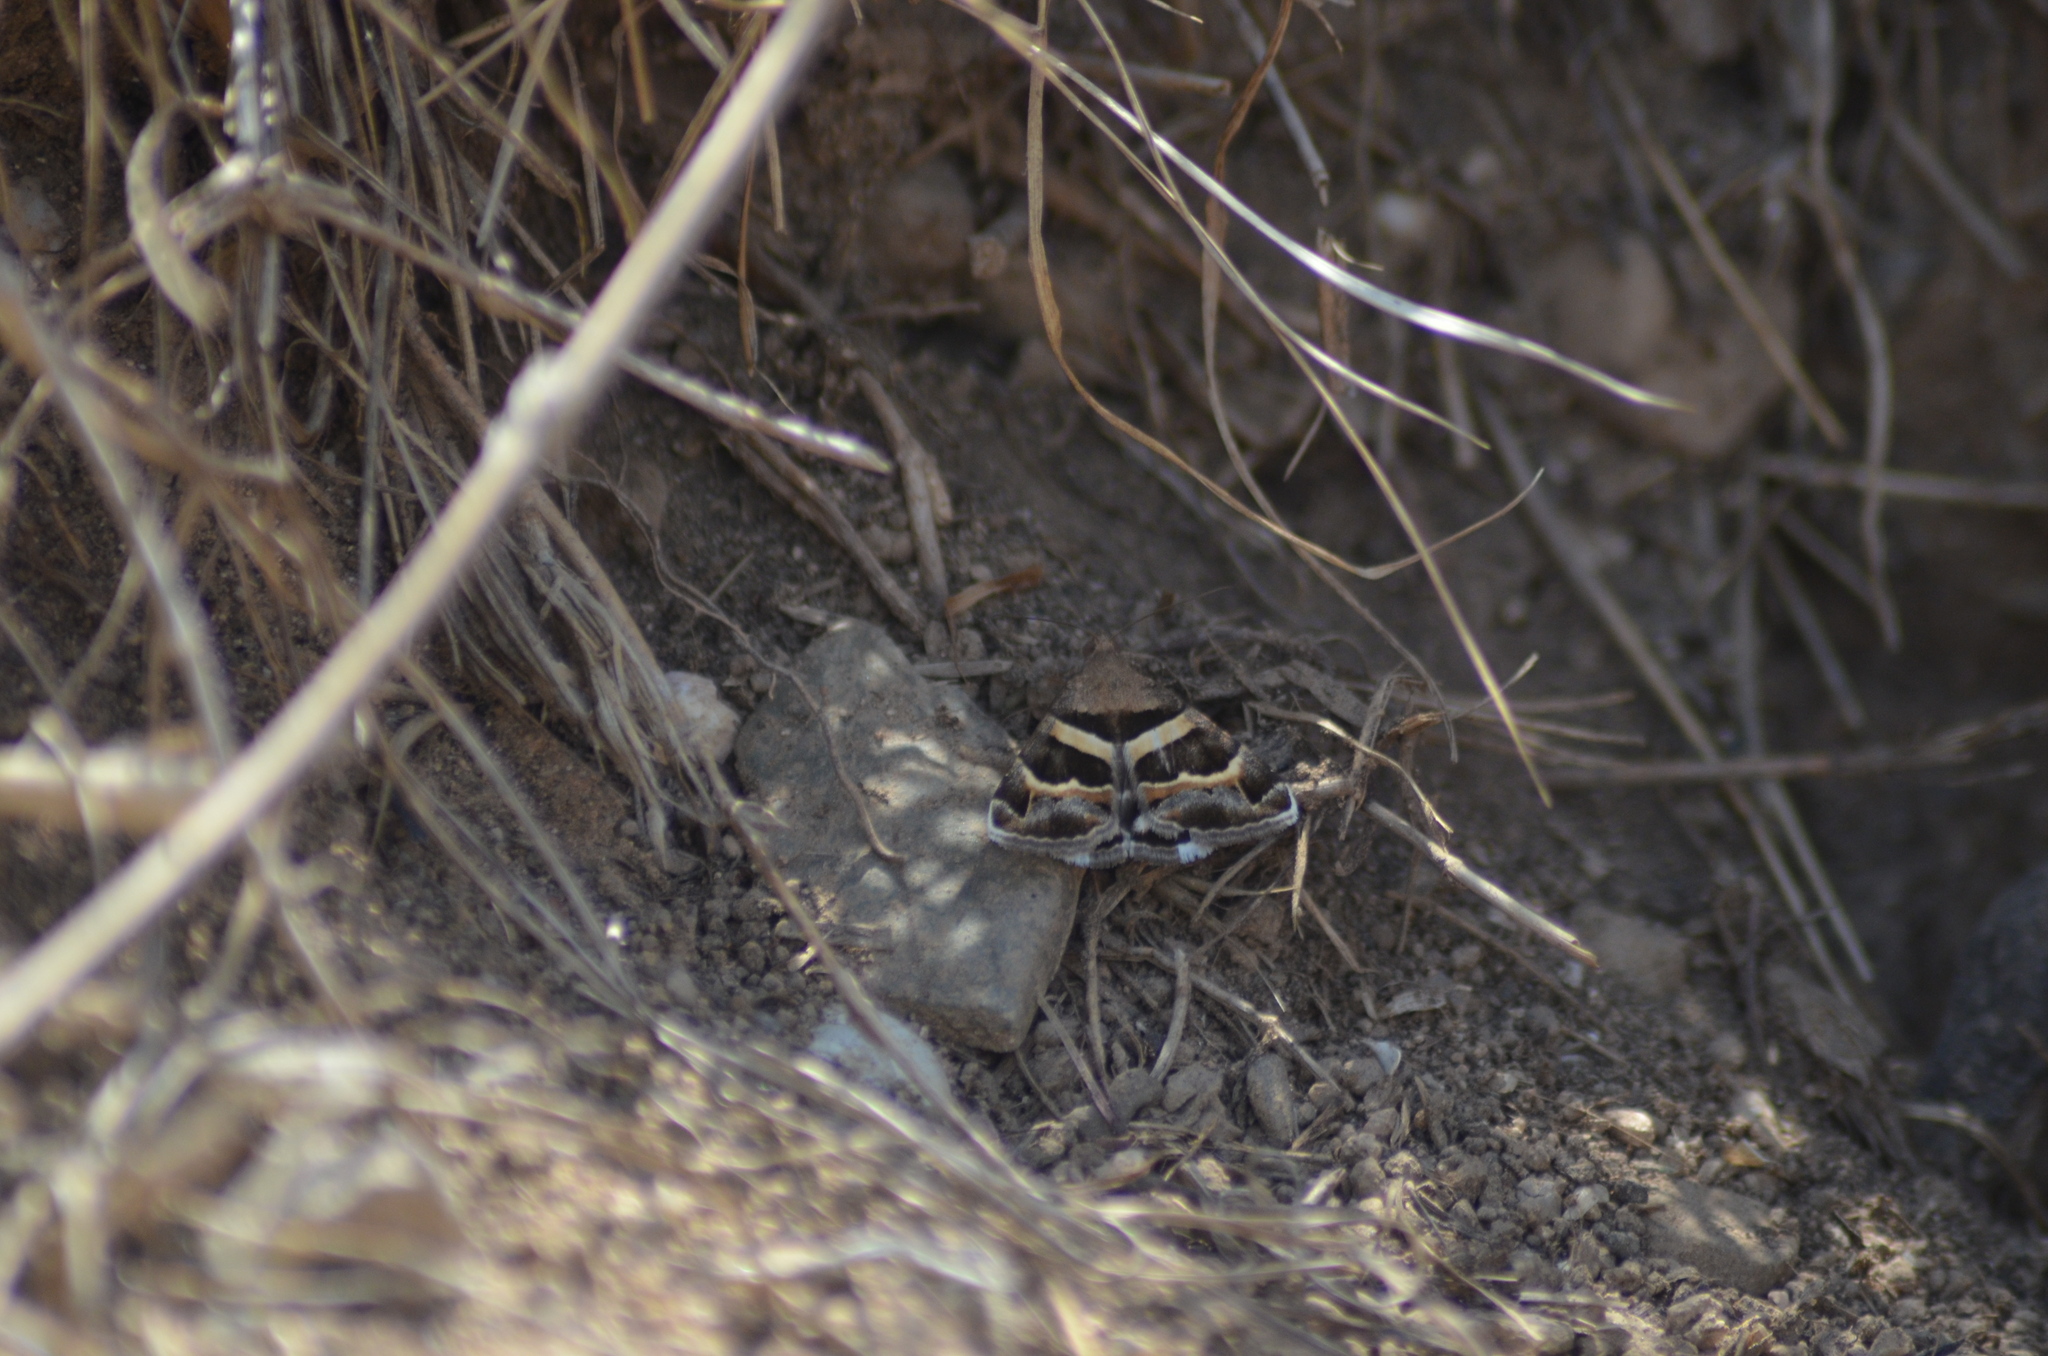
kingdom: Animalia
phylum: Arthropoda
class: Insecta
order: Lepidoptera
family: Erebidae
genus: Grammodes
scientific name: Grammodes stolida
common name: Geometrician
